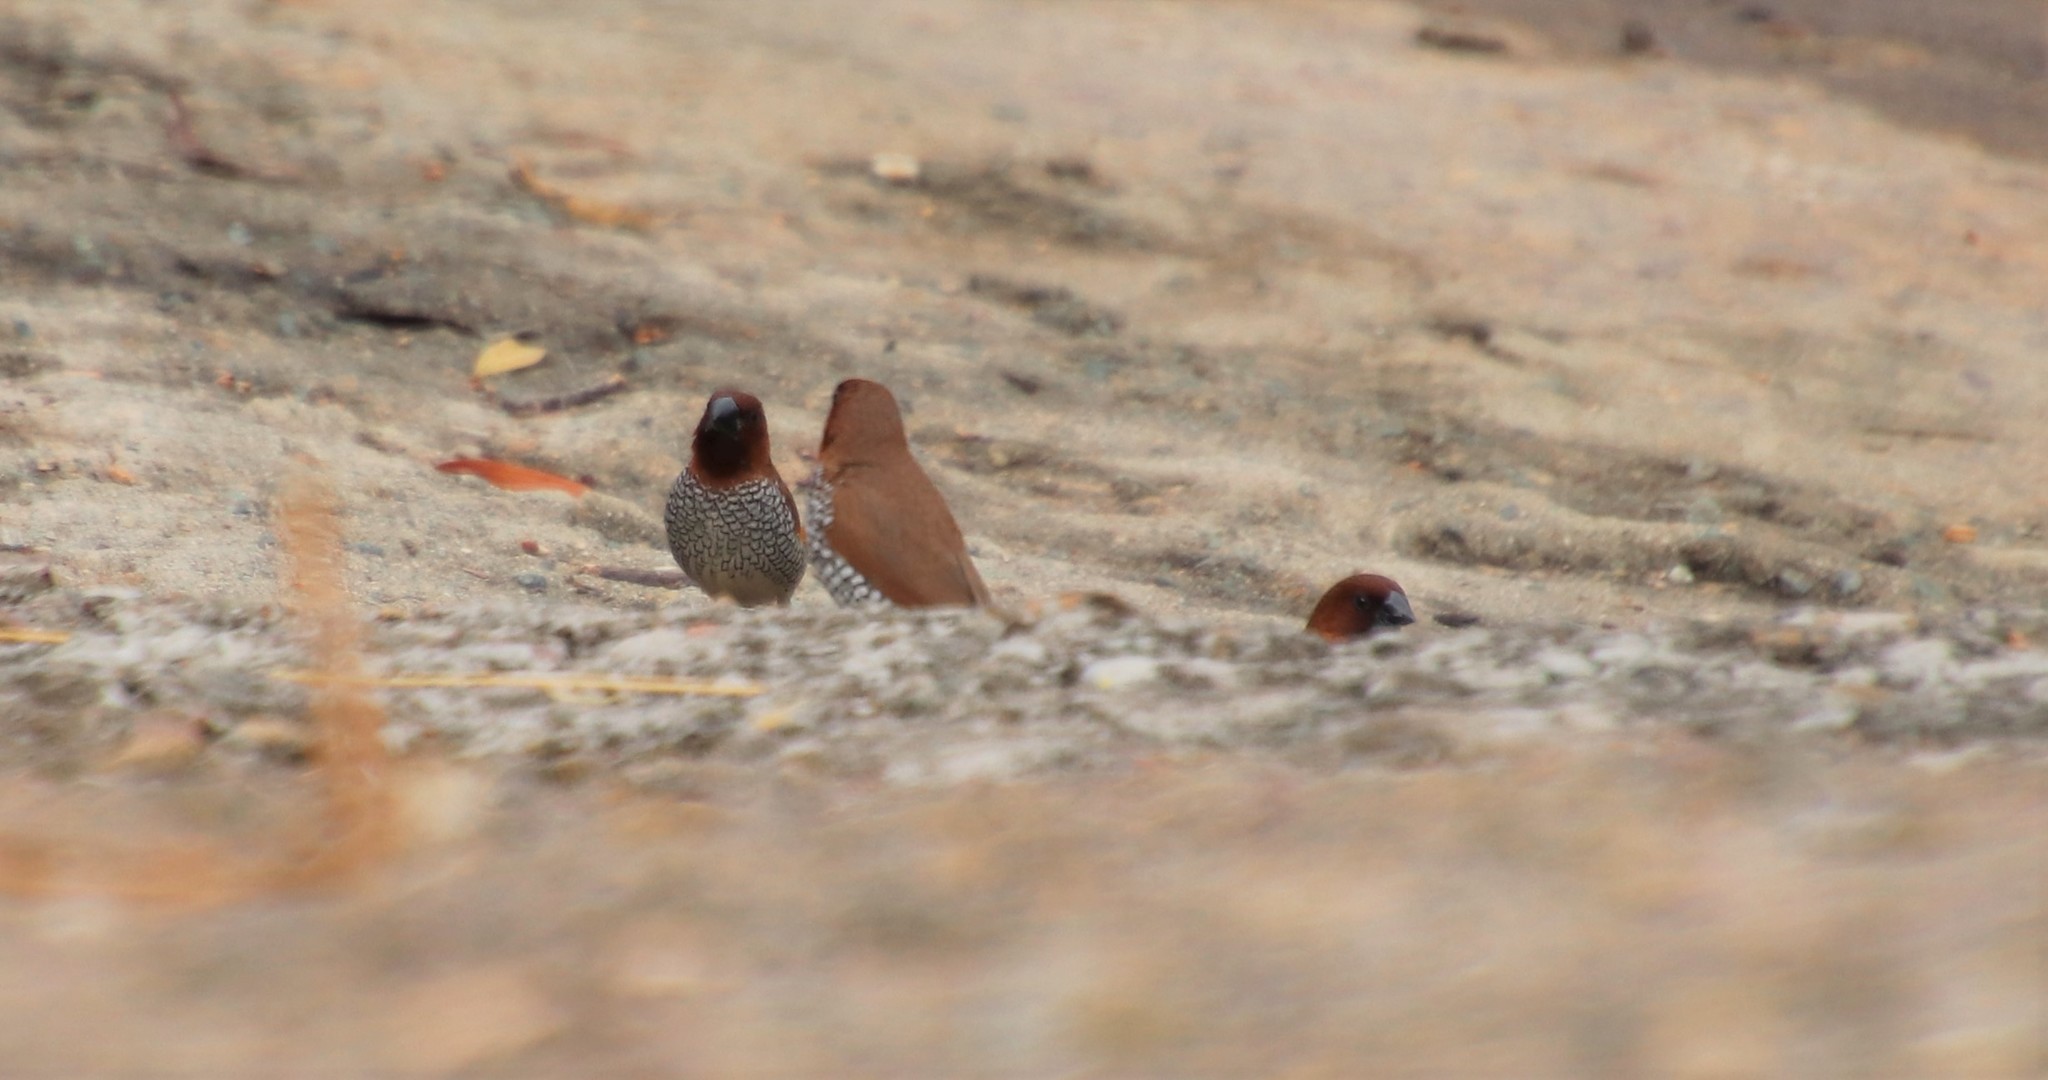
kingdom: Animalia
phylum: Chordata
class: Aves
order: Passeriformes
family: Estrildidae
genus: Lonchura
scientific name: Lonchura punctulata
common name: Scaly-breasted munia
